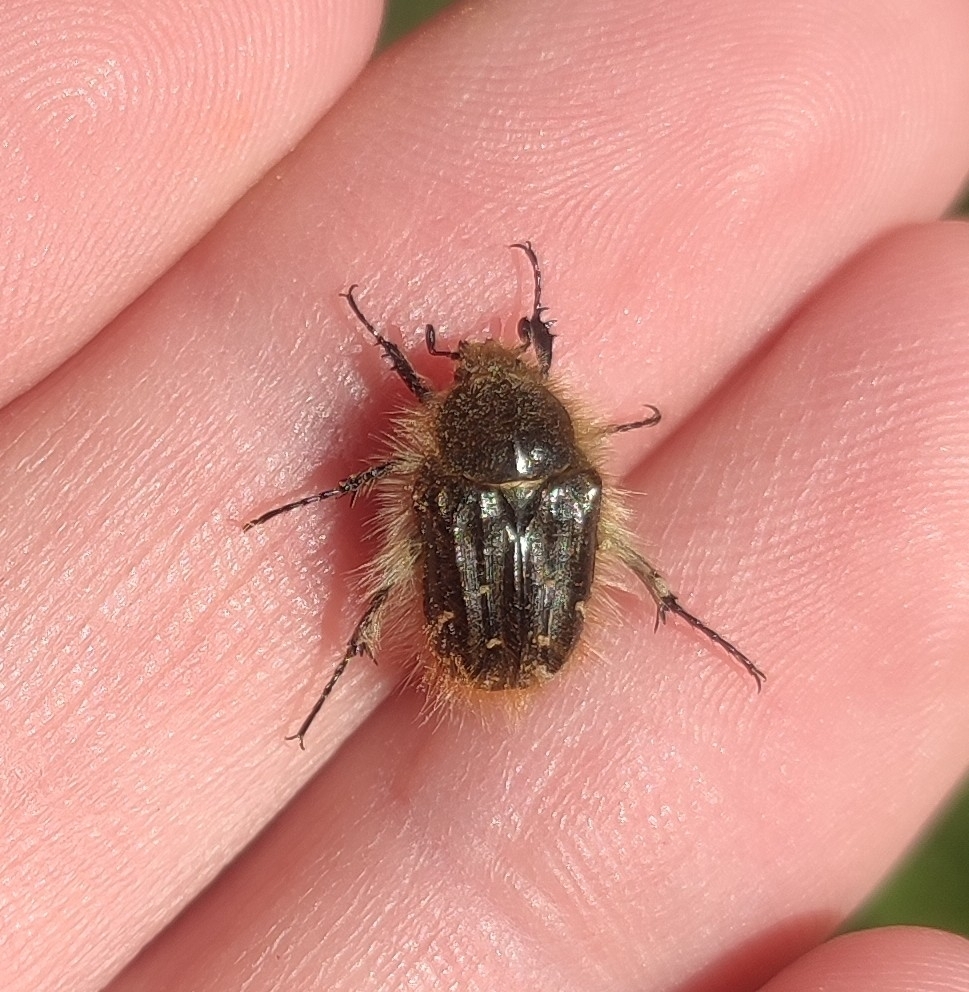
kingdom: Animalia
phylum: Arthropoda
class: Insecta
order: Coleoptera
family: Scarabaeidae
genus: Tropinota
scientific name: Tropinota squalida
